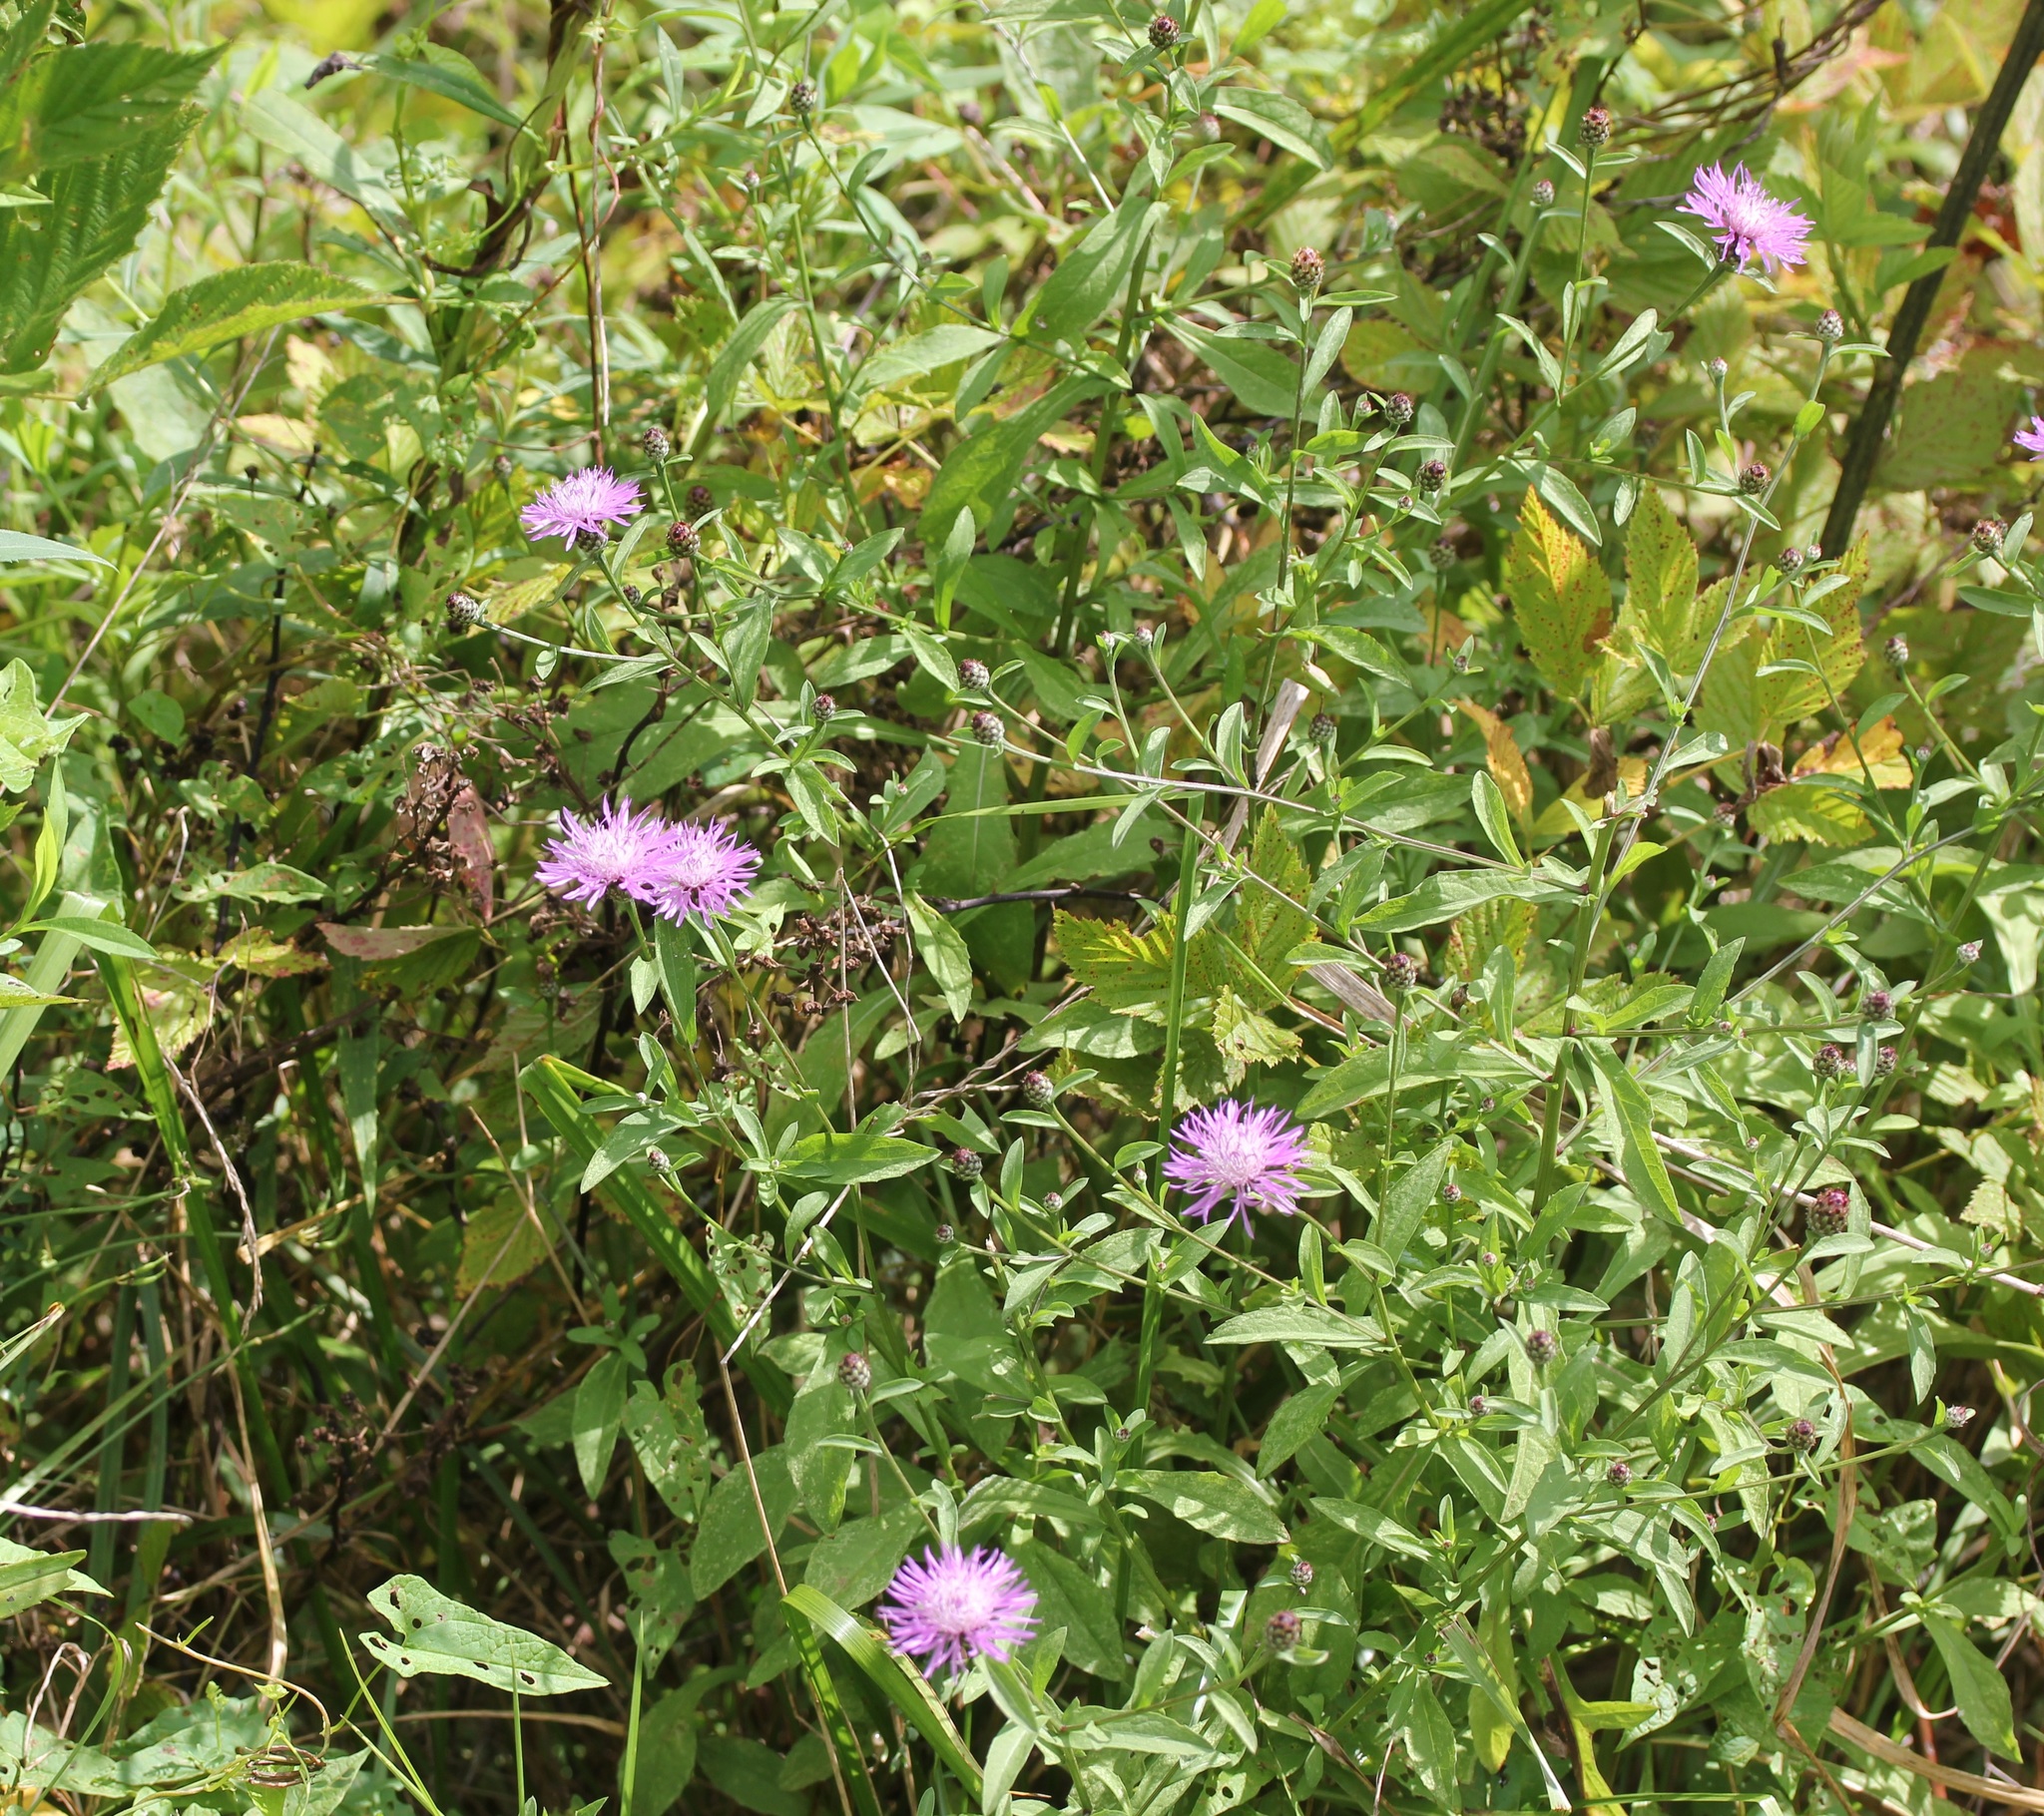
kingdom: Plantae
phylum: Tracheophyta
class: Magnoliopsida
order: Asterales
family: Asteraceae
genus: Centaurea
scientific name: Centaurea nigrescens
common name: Tyrol knapweed
